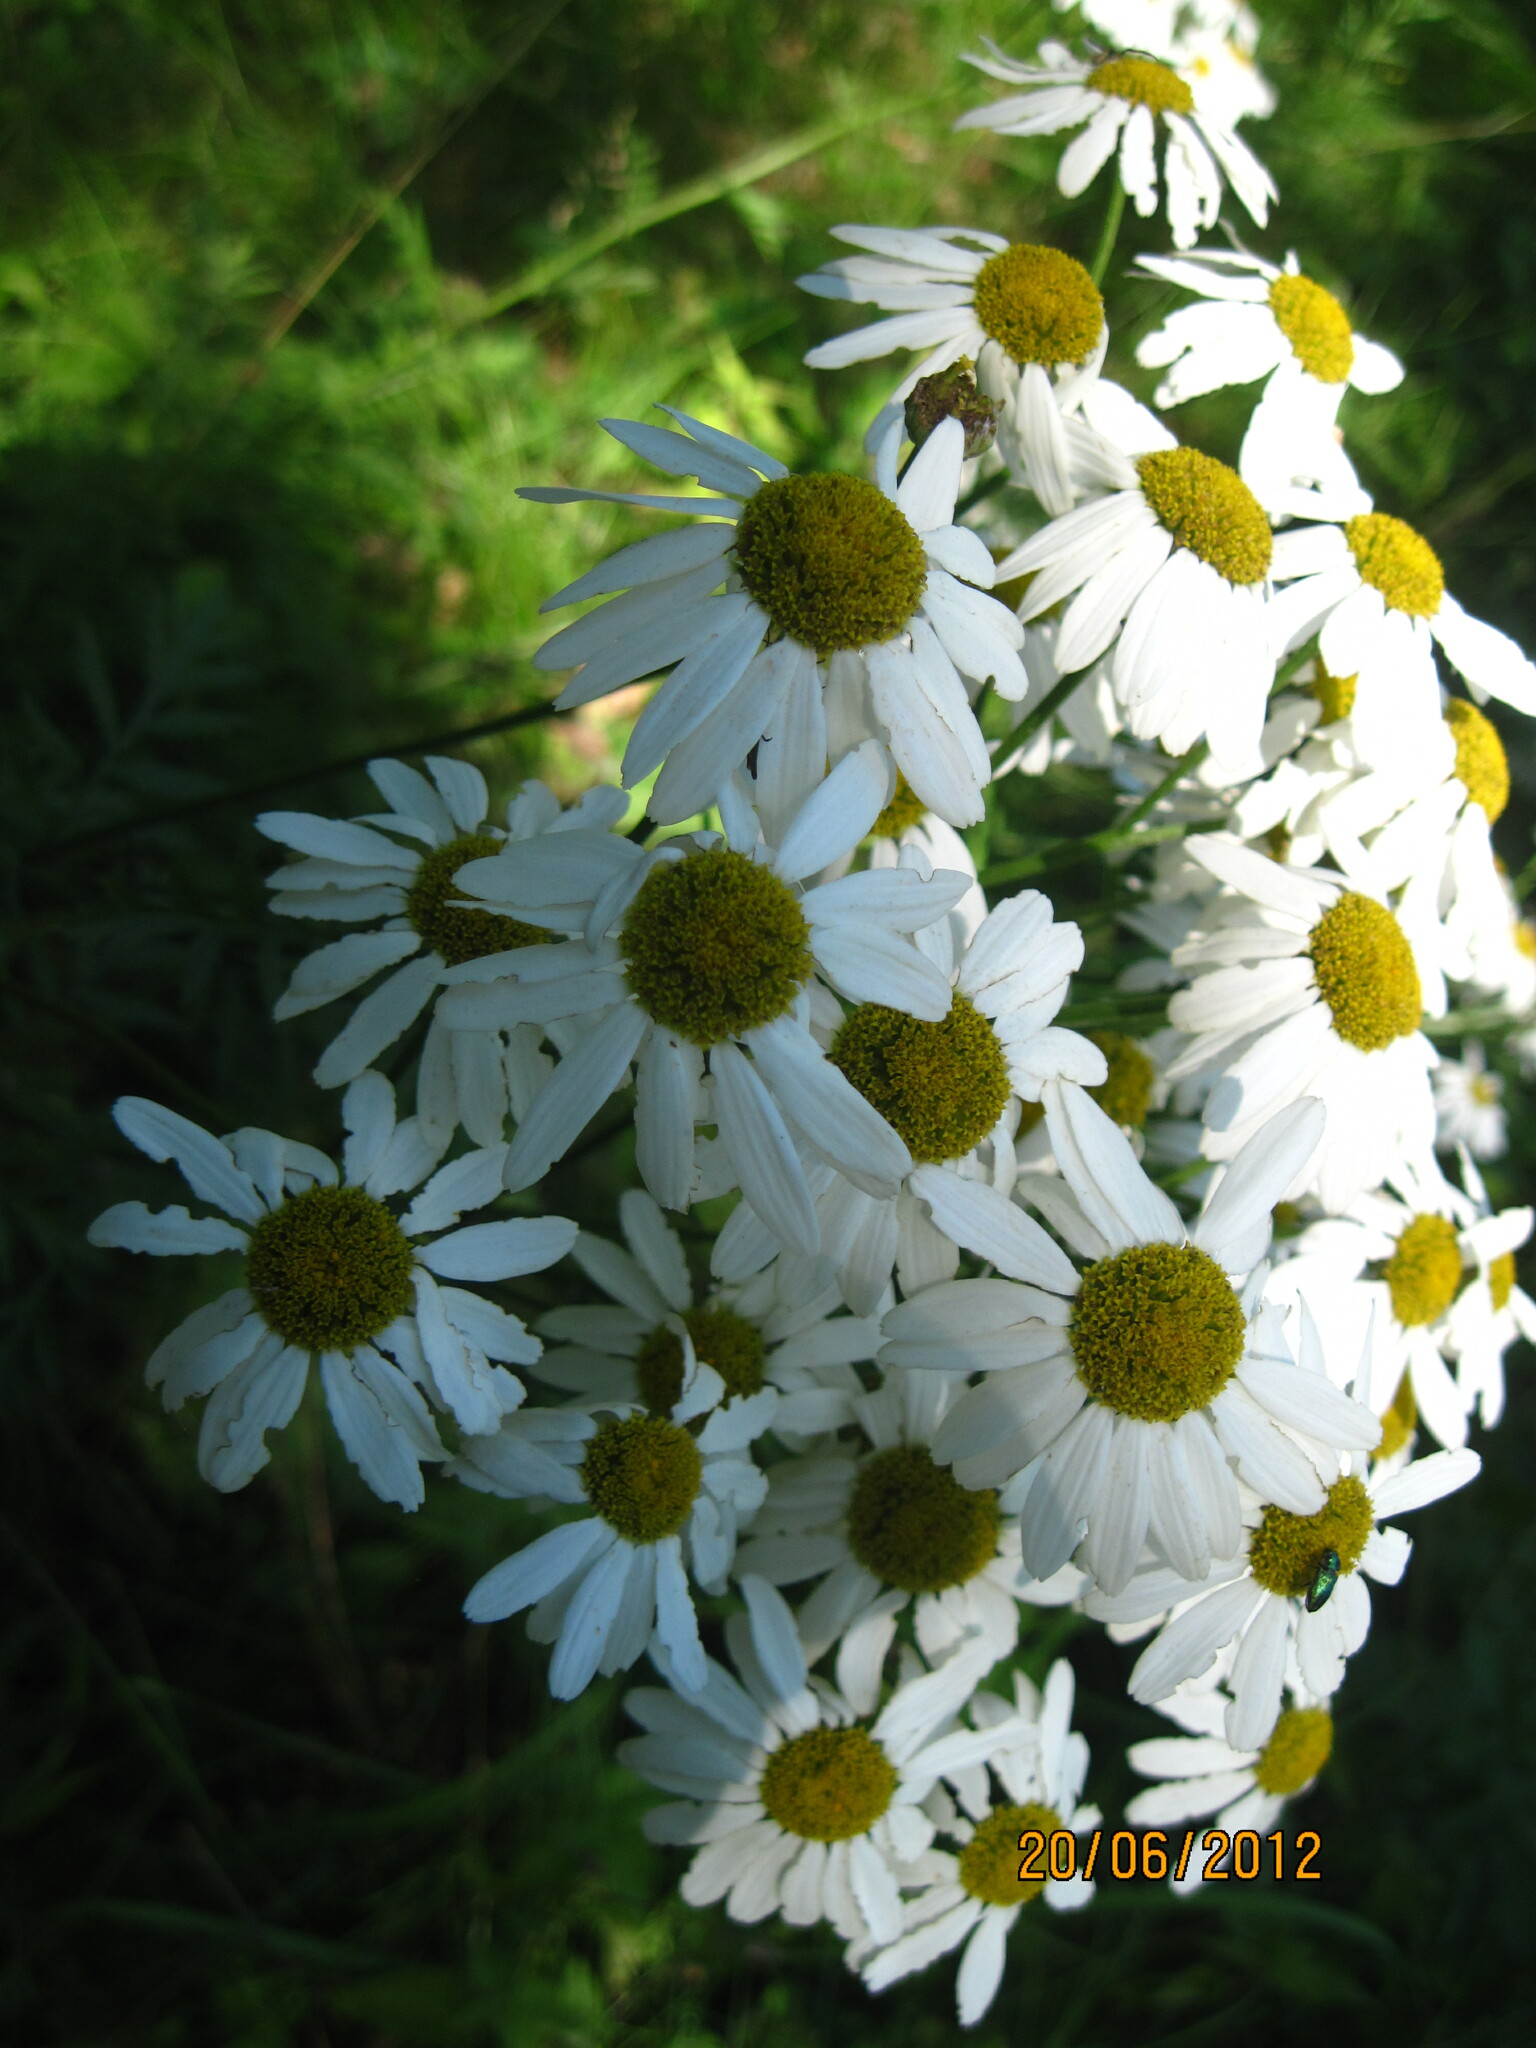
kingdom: Plantae
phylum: Tracheophyta
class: Magnoliopsida
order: Asterales
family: Asteraceae
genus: Tanacetum
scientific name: Tanacetum corymbosum
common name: Scentless feverfew
